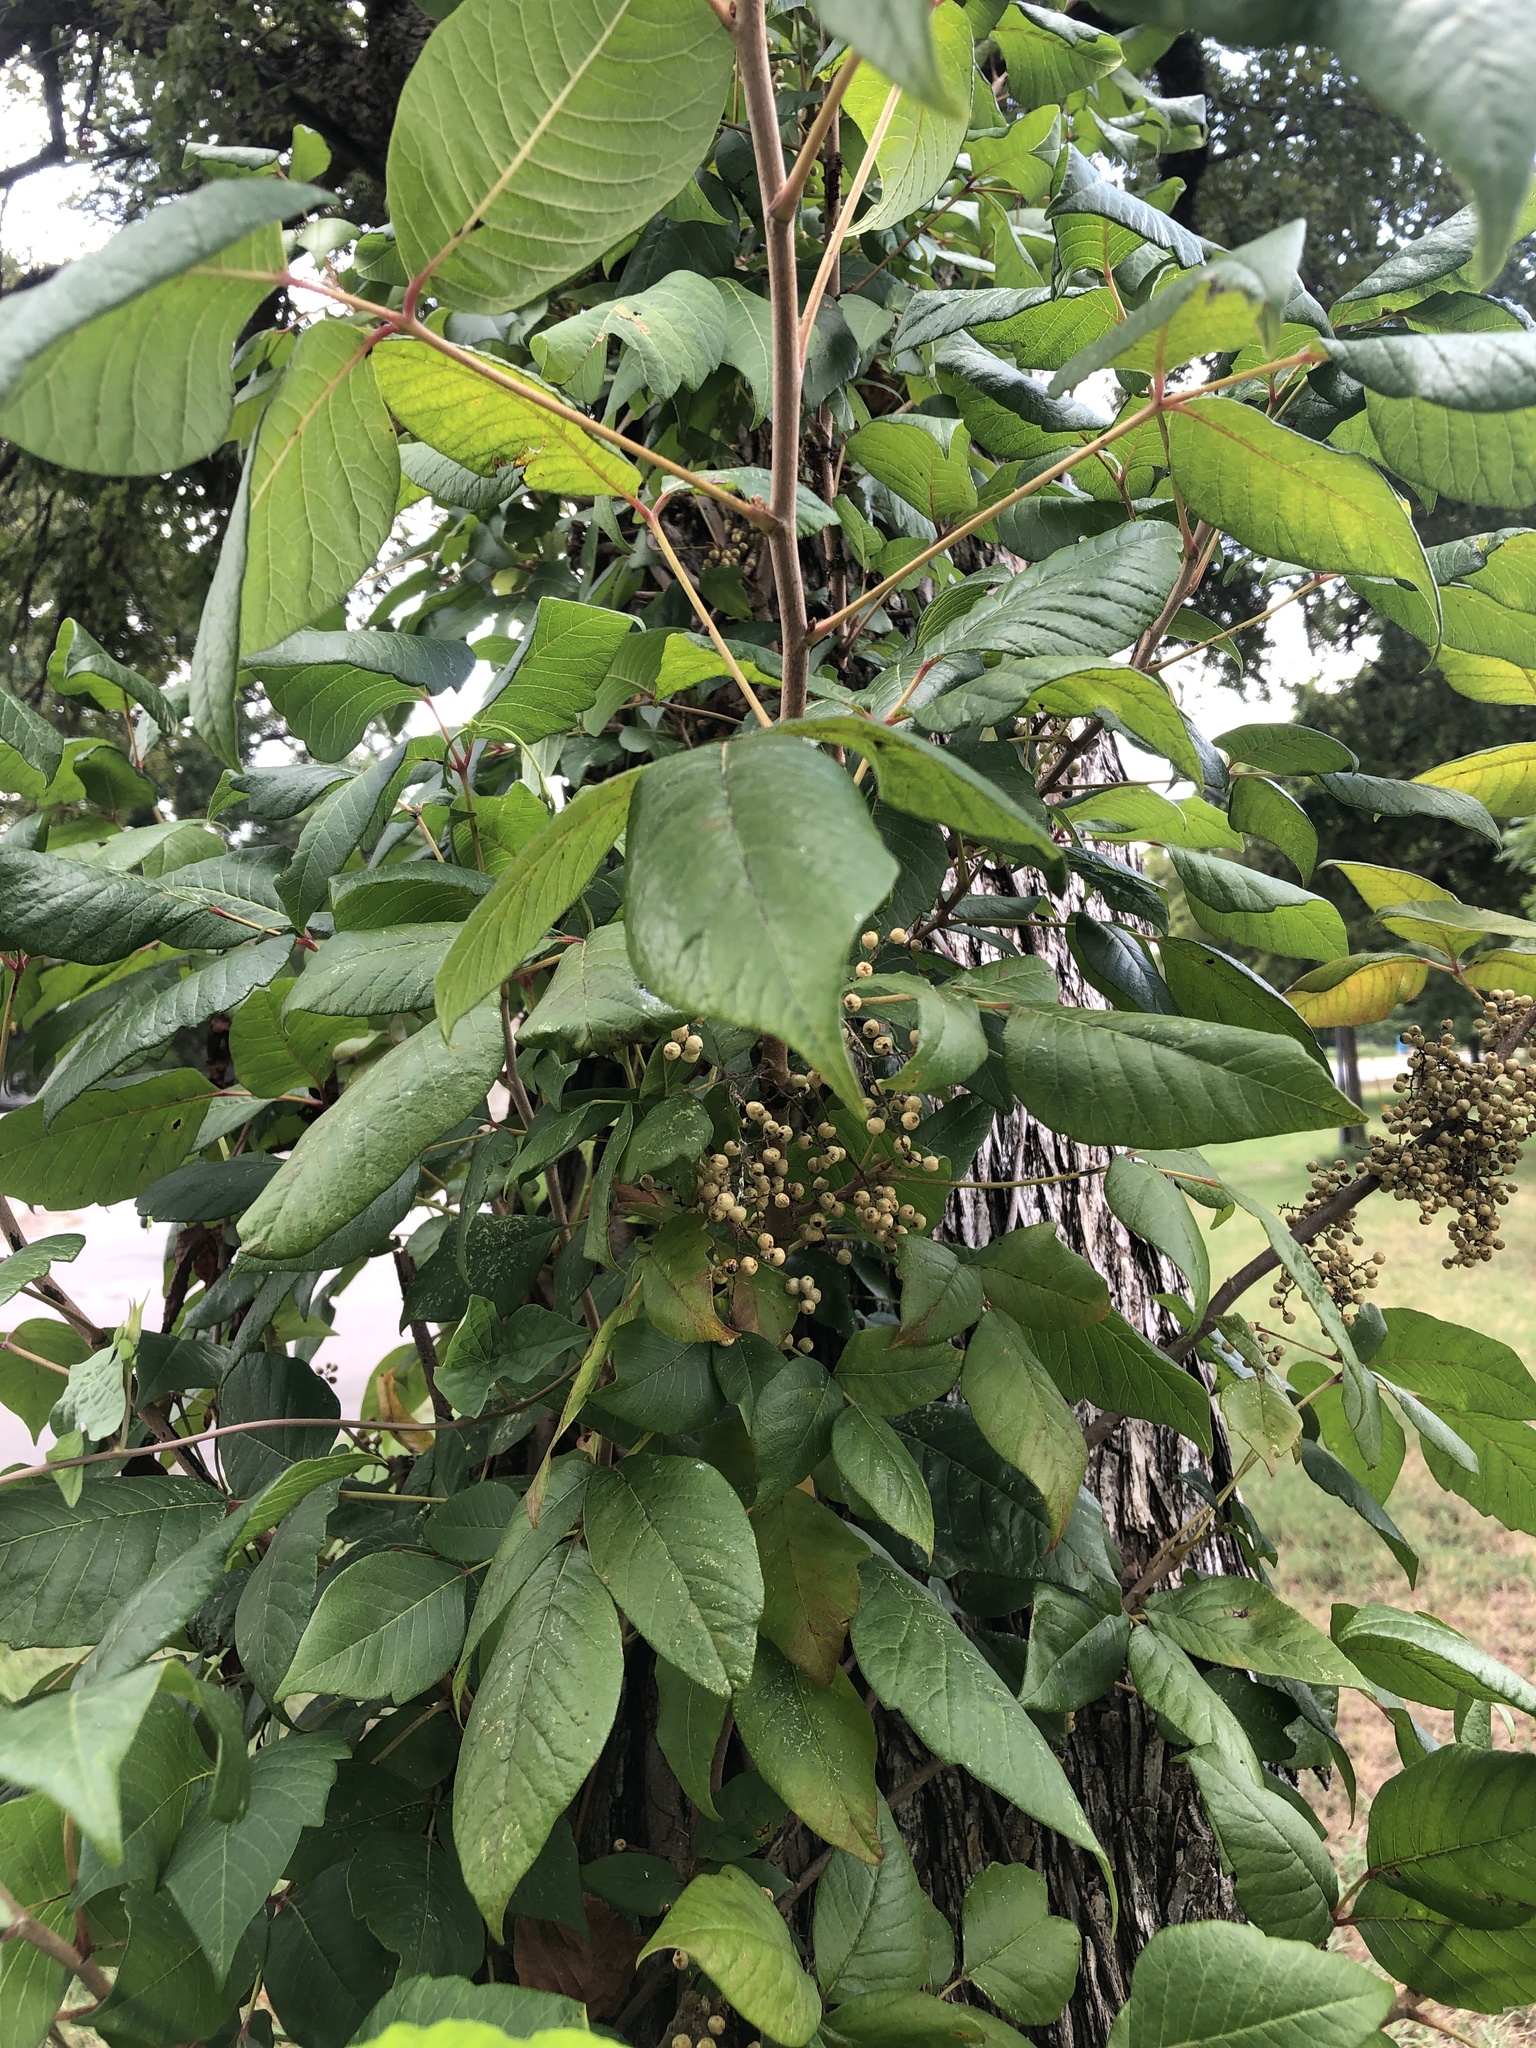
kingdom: Plantae
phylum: Tracheophyta
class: Magnoliopsida
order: Sapindales
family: Anacardiaceae
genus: Toxicodendron
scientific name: Toxicodendron radicans
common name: Poison ivy
